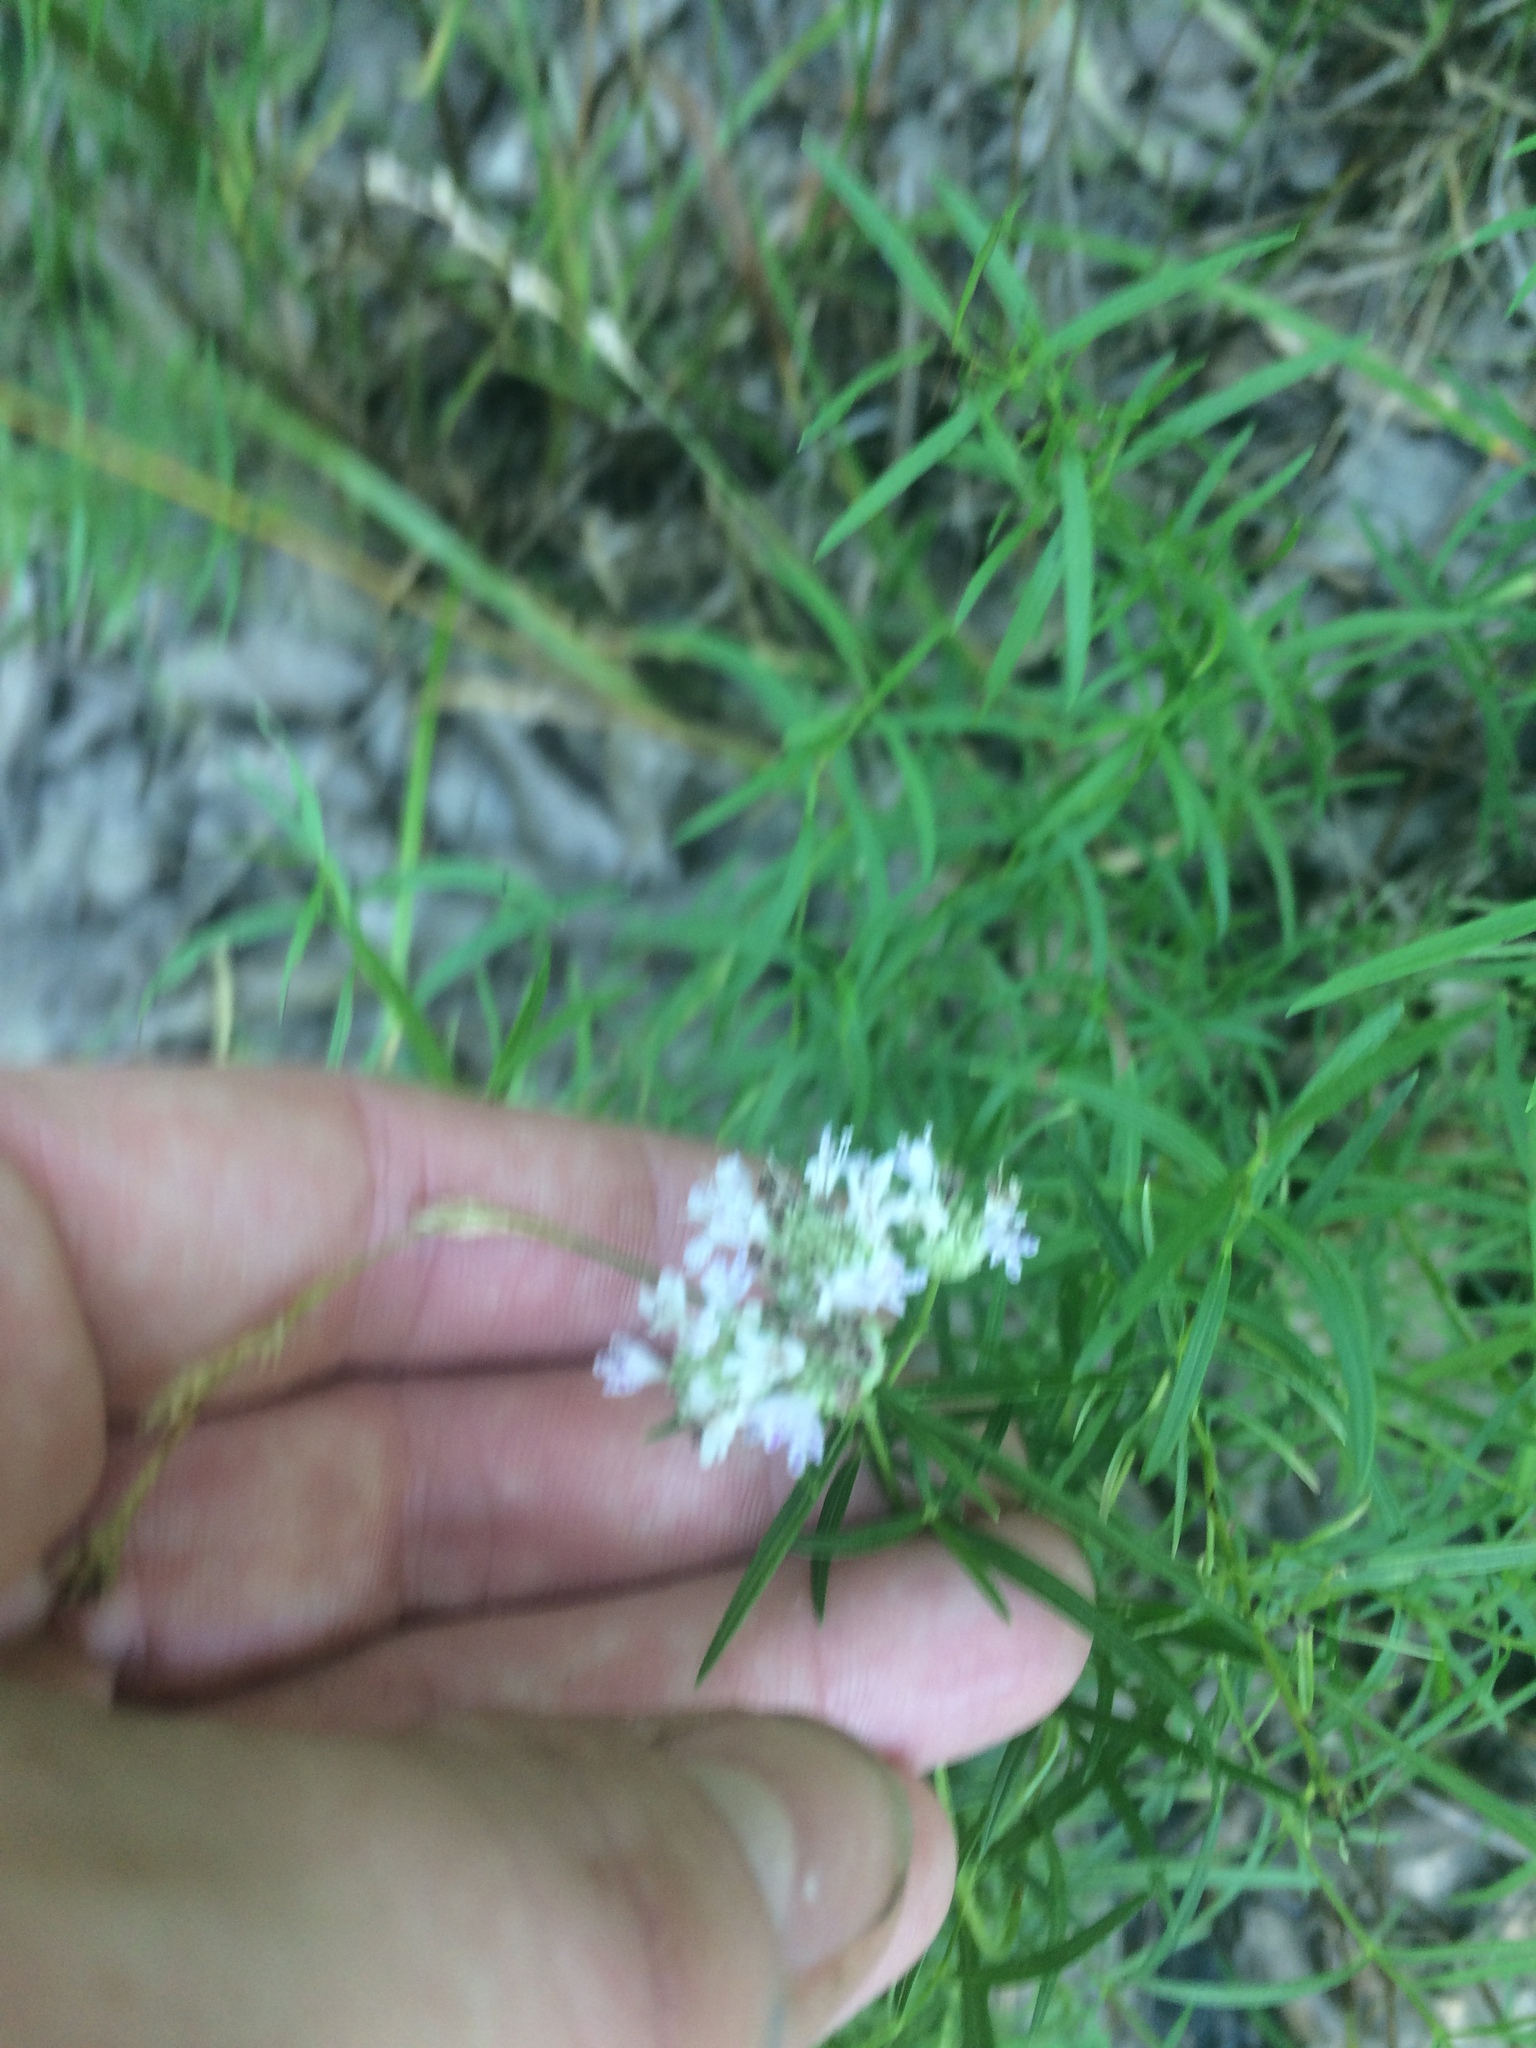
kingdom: Plantae
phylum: Tracheophyta
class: Magnoliopsida
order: Lamiales
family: Lamiaceae
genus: Pycnanthemum
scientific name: Pycnanthemum tenuifolium
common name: Narrow-leaf mountain-mint
